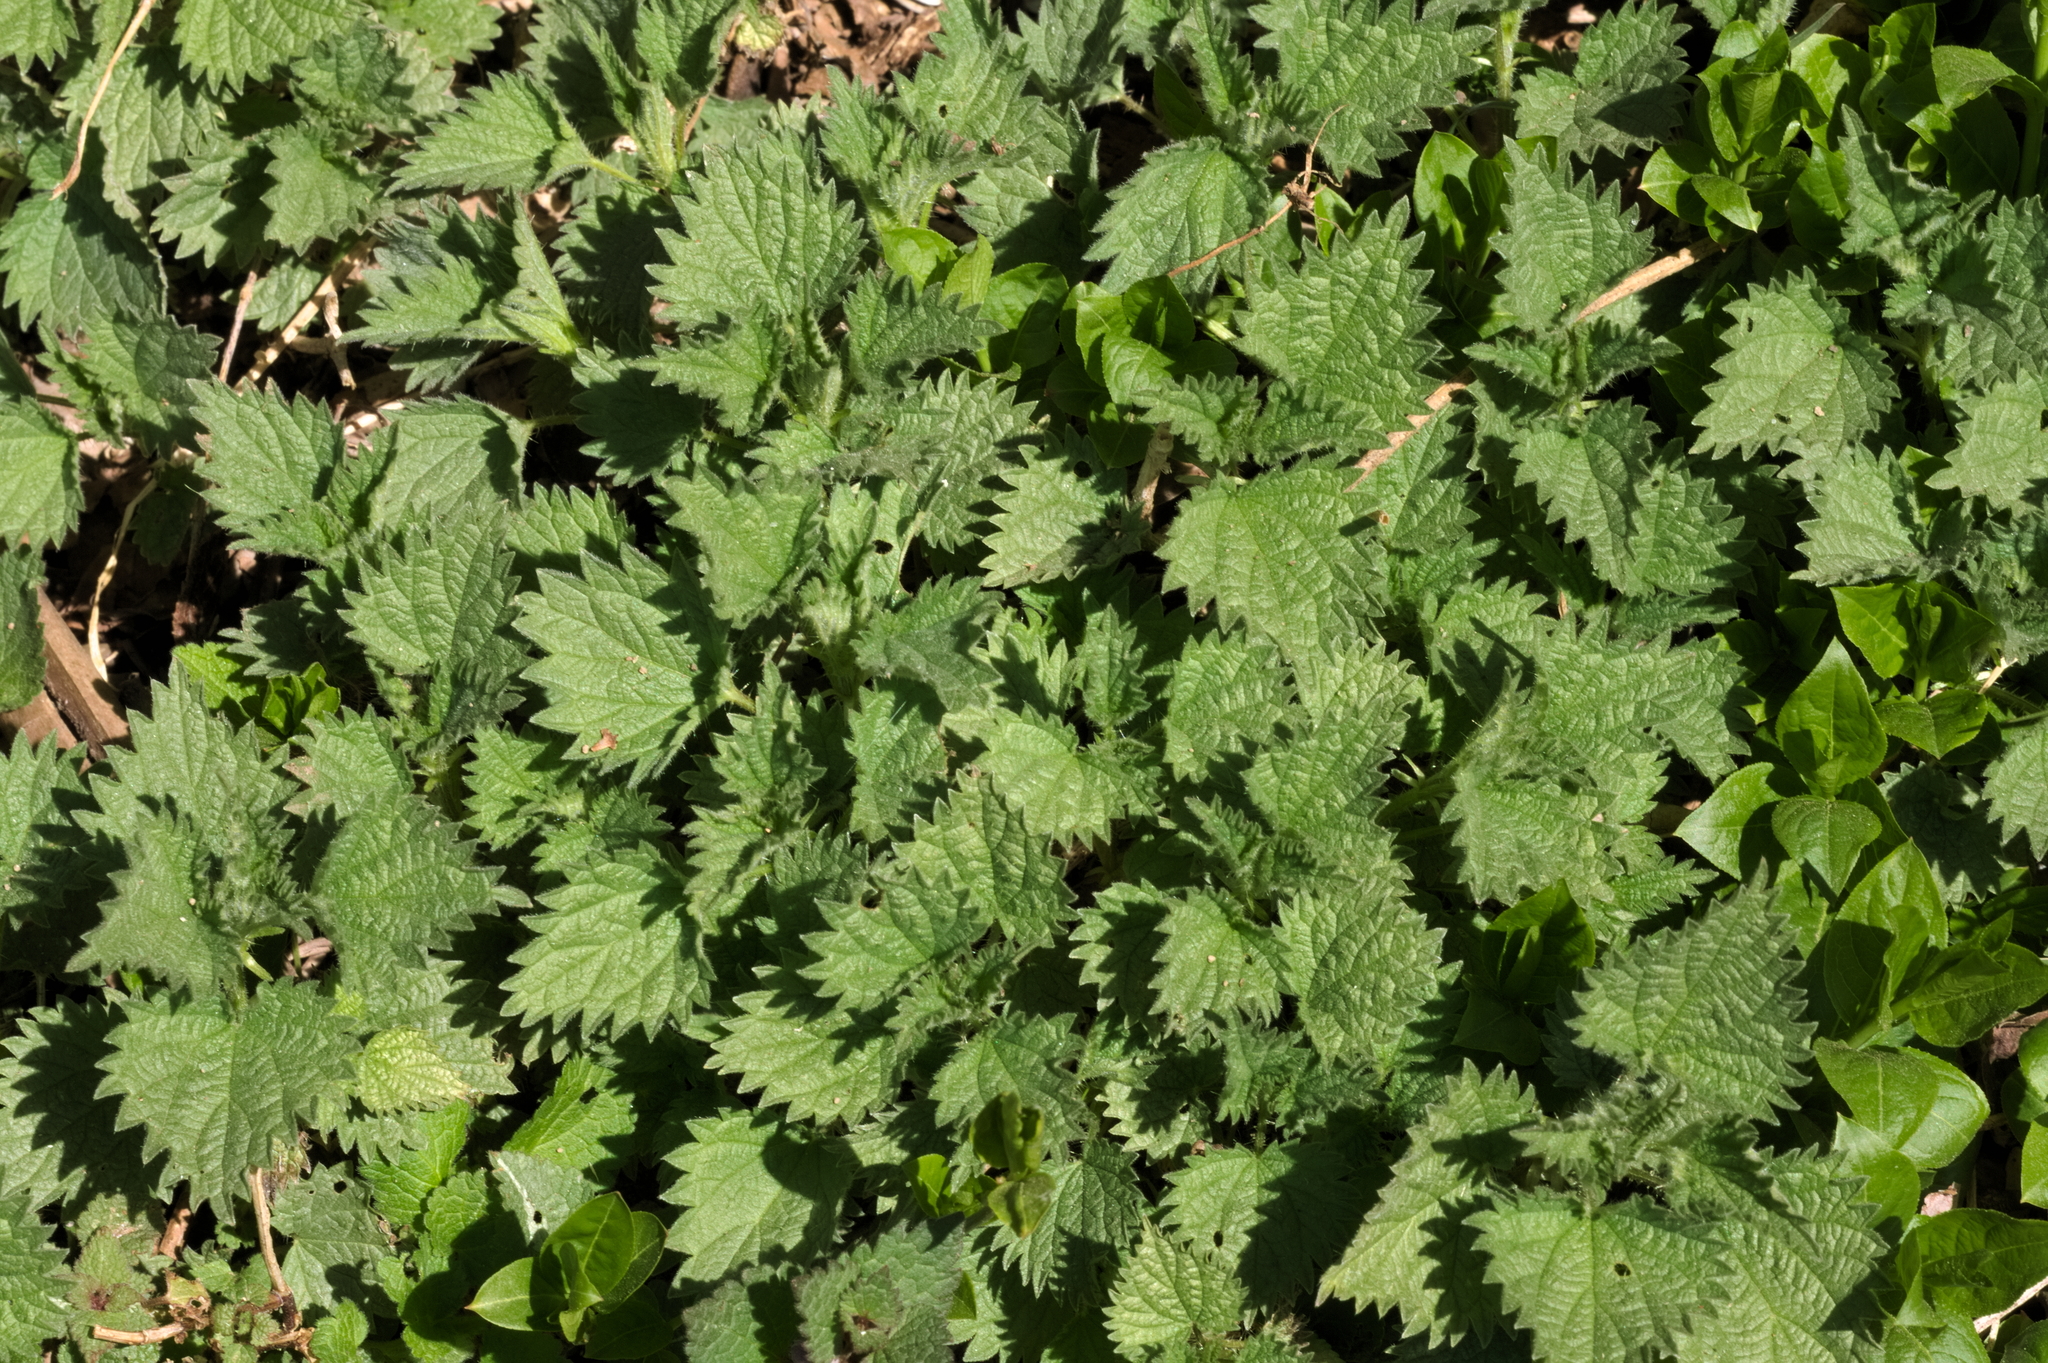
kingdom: Plantae
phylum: Tracheophyta
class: Magnoliopsida
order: Rosales
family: Urticaceae
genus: Urtica
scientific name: Urtica dioica
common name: Common nettle
